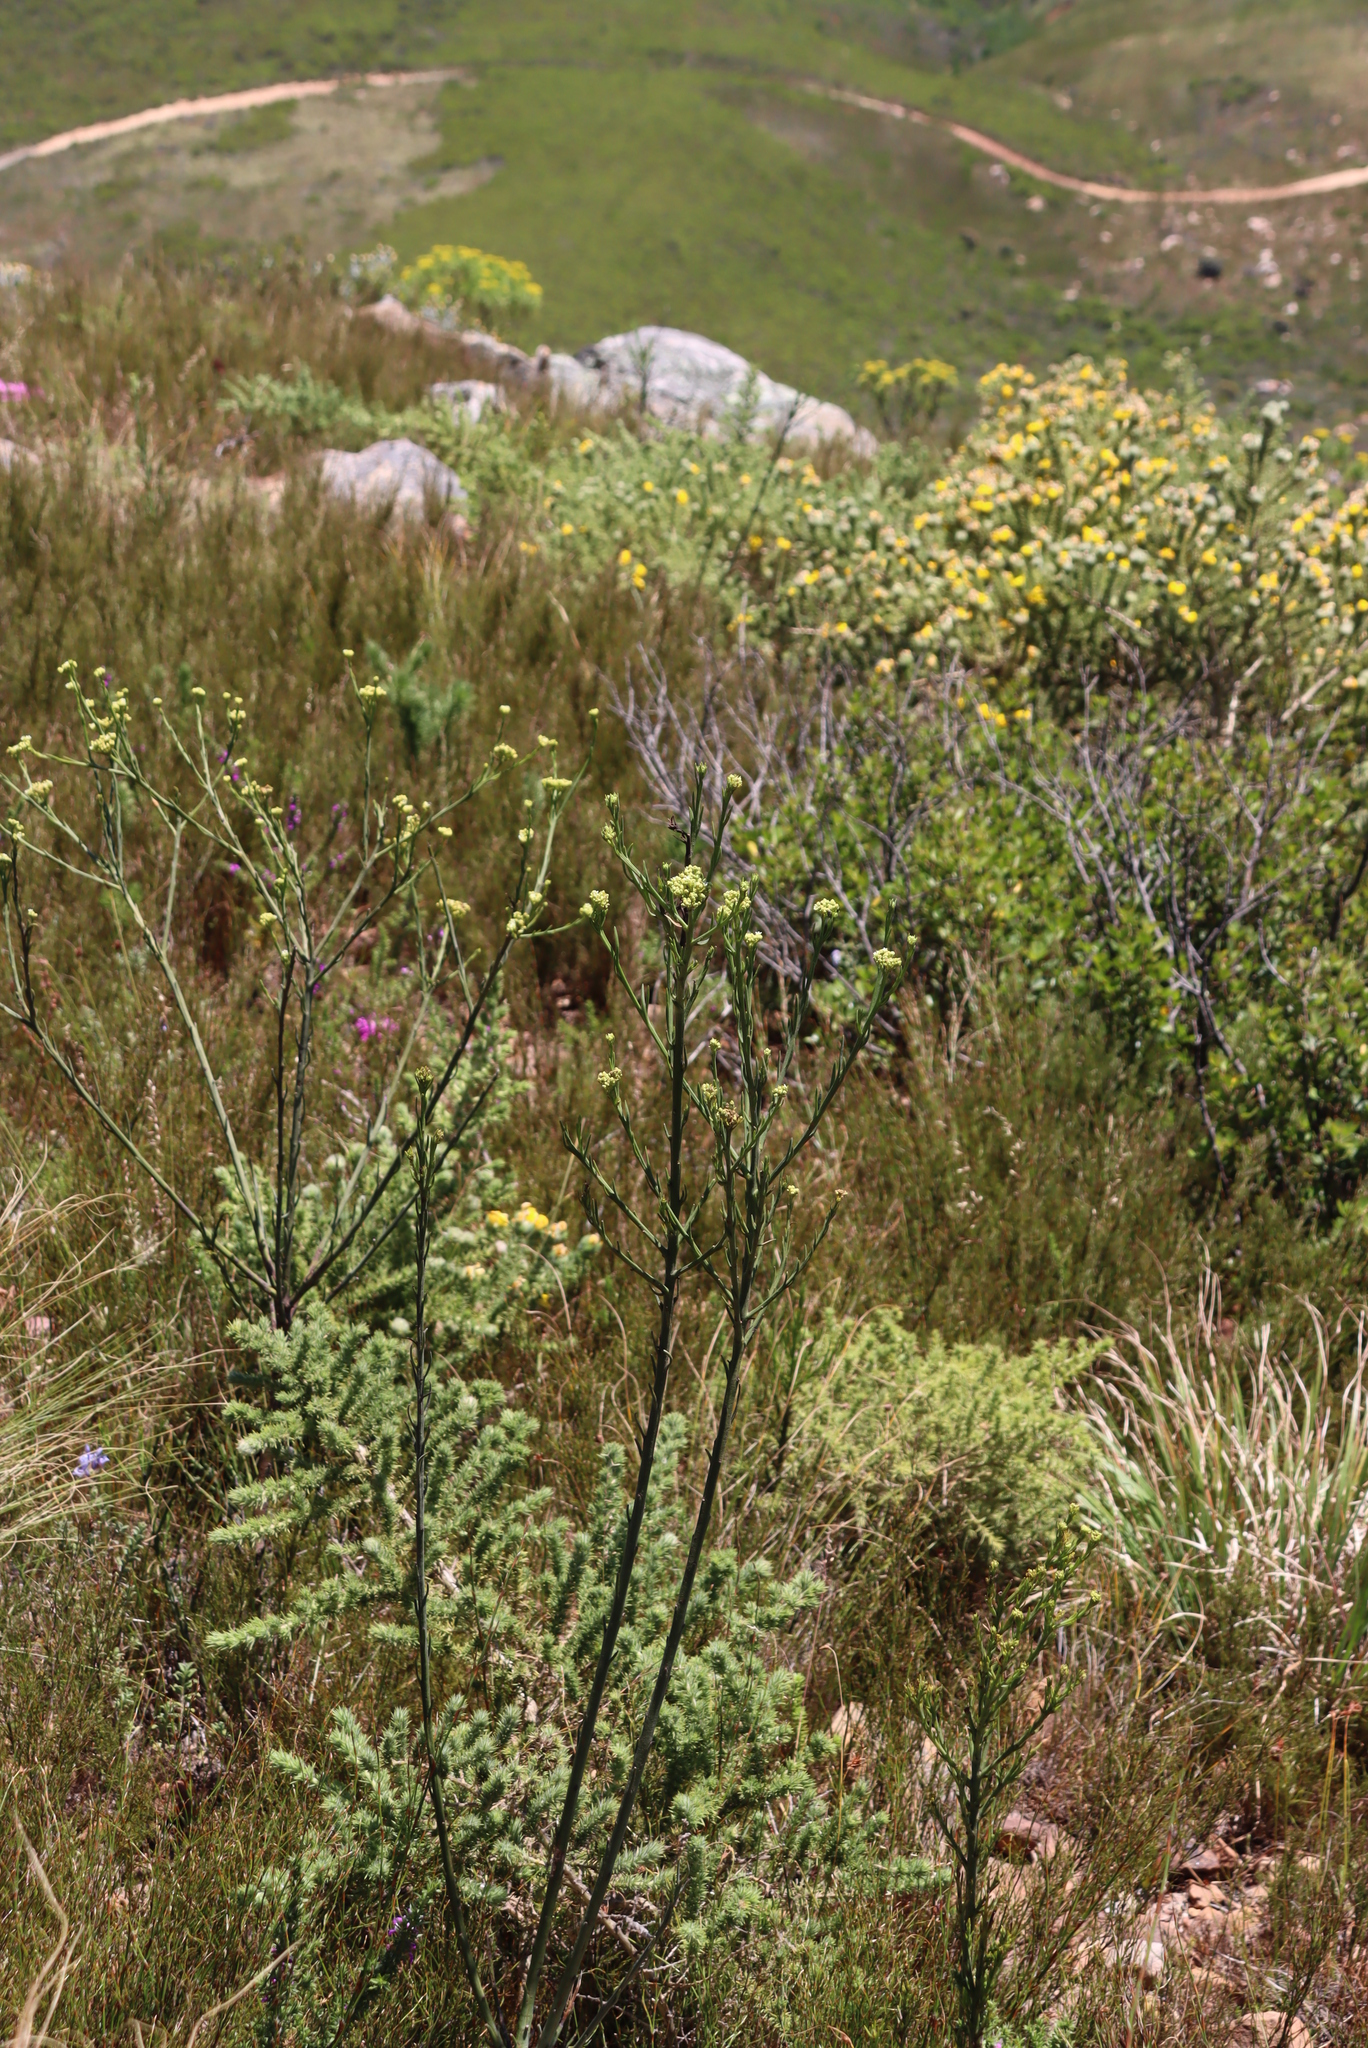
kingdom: Plantae
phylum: Tracheophyta
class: Magnoliopsida
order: Santalales
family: Thesiaceae
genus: Thesium
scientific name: Thesium strictum
